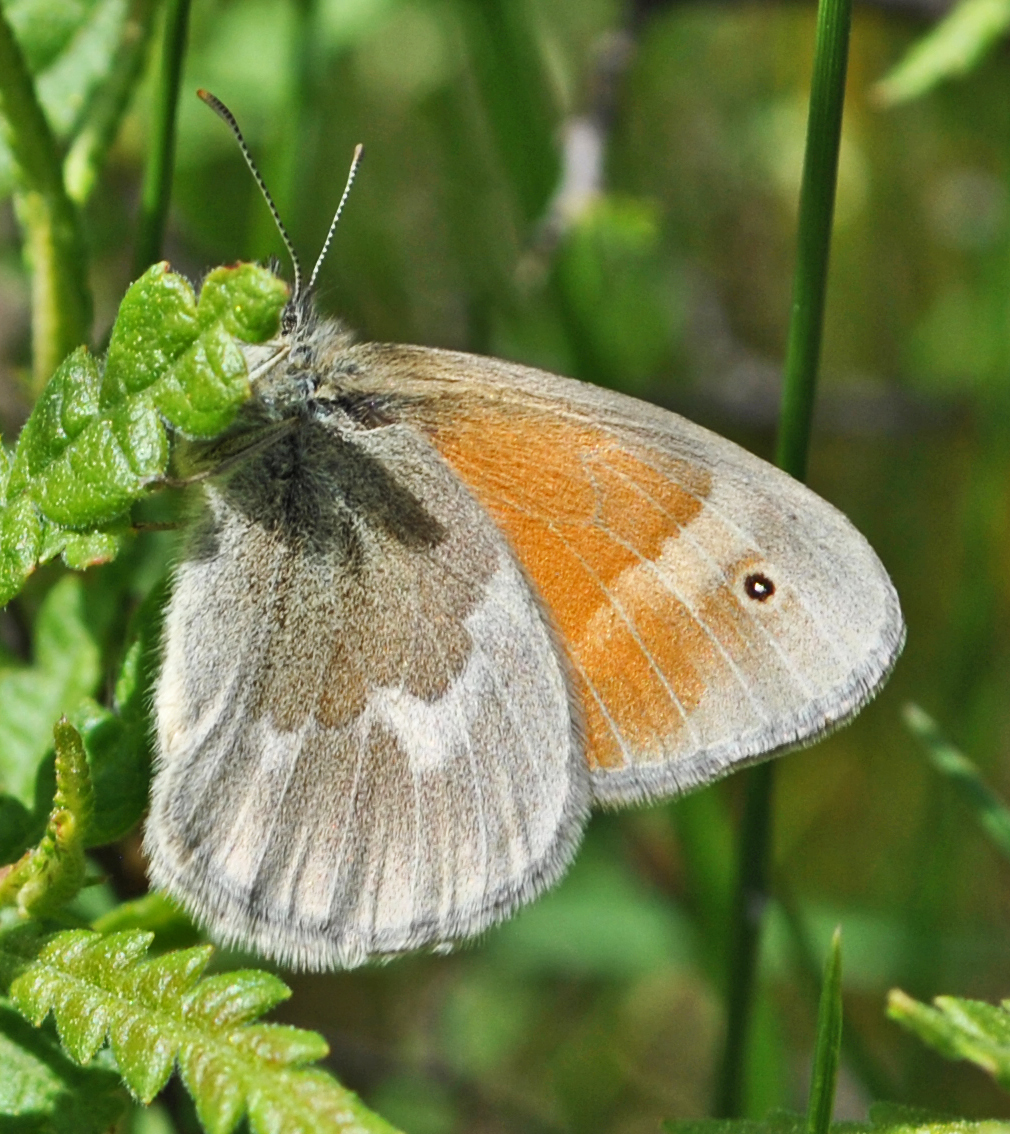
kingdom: Animalia
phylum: Arthropoda
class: Insecta
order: Lepidoptera
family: Nymphalidae
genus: Coenonympha
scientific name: Coenonympha california
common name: Common ringlet
